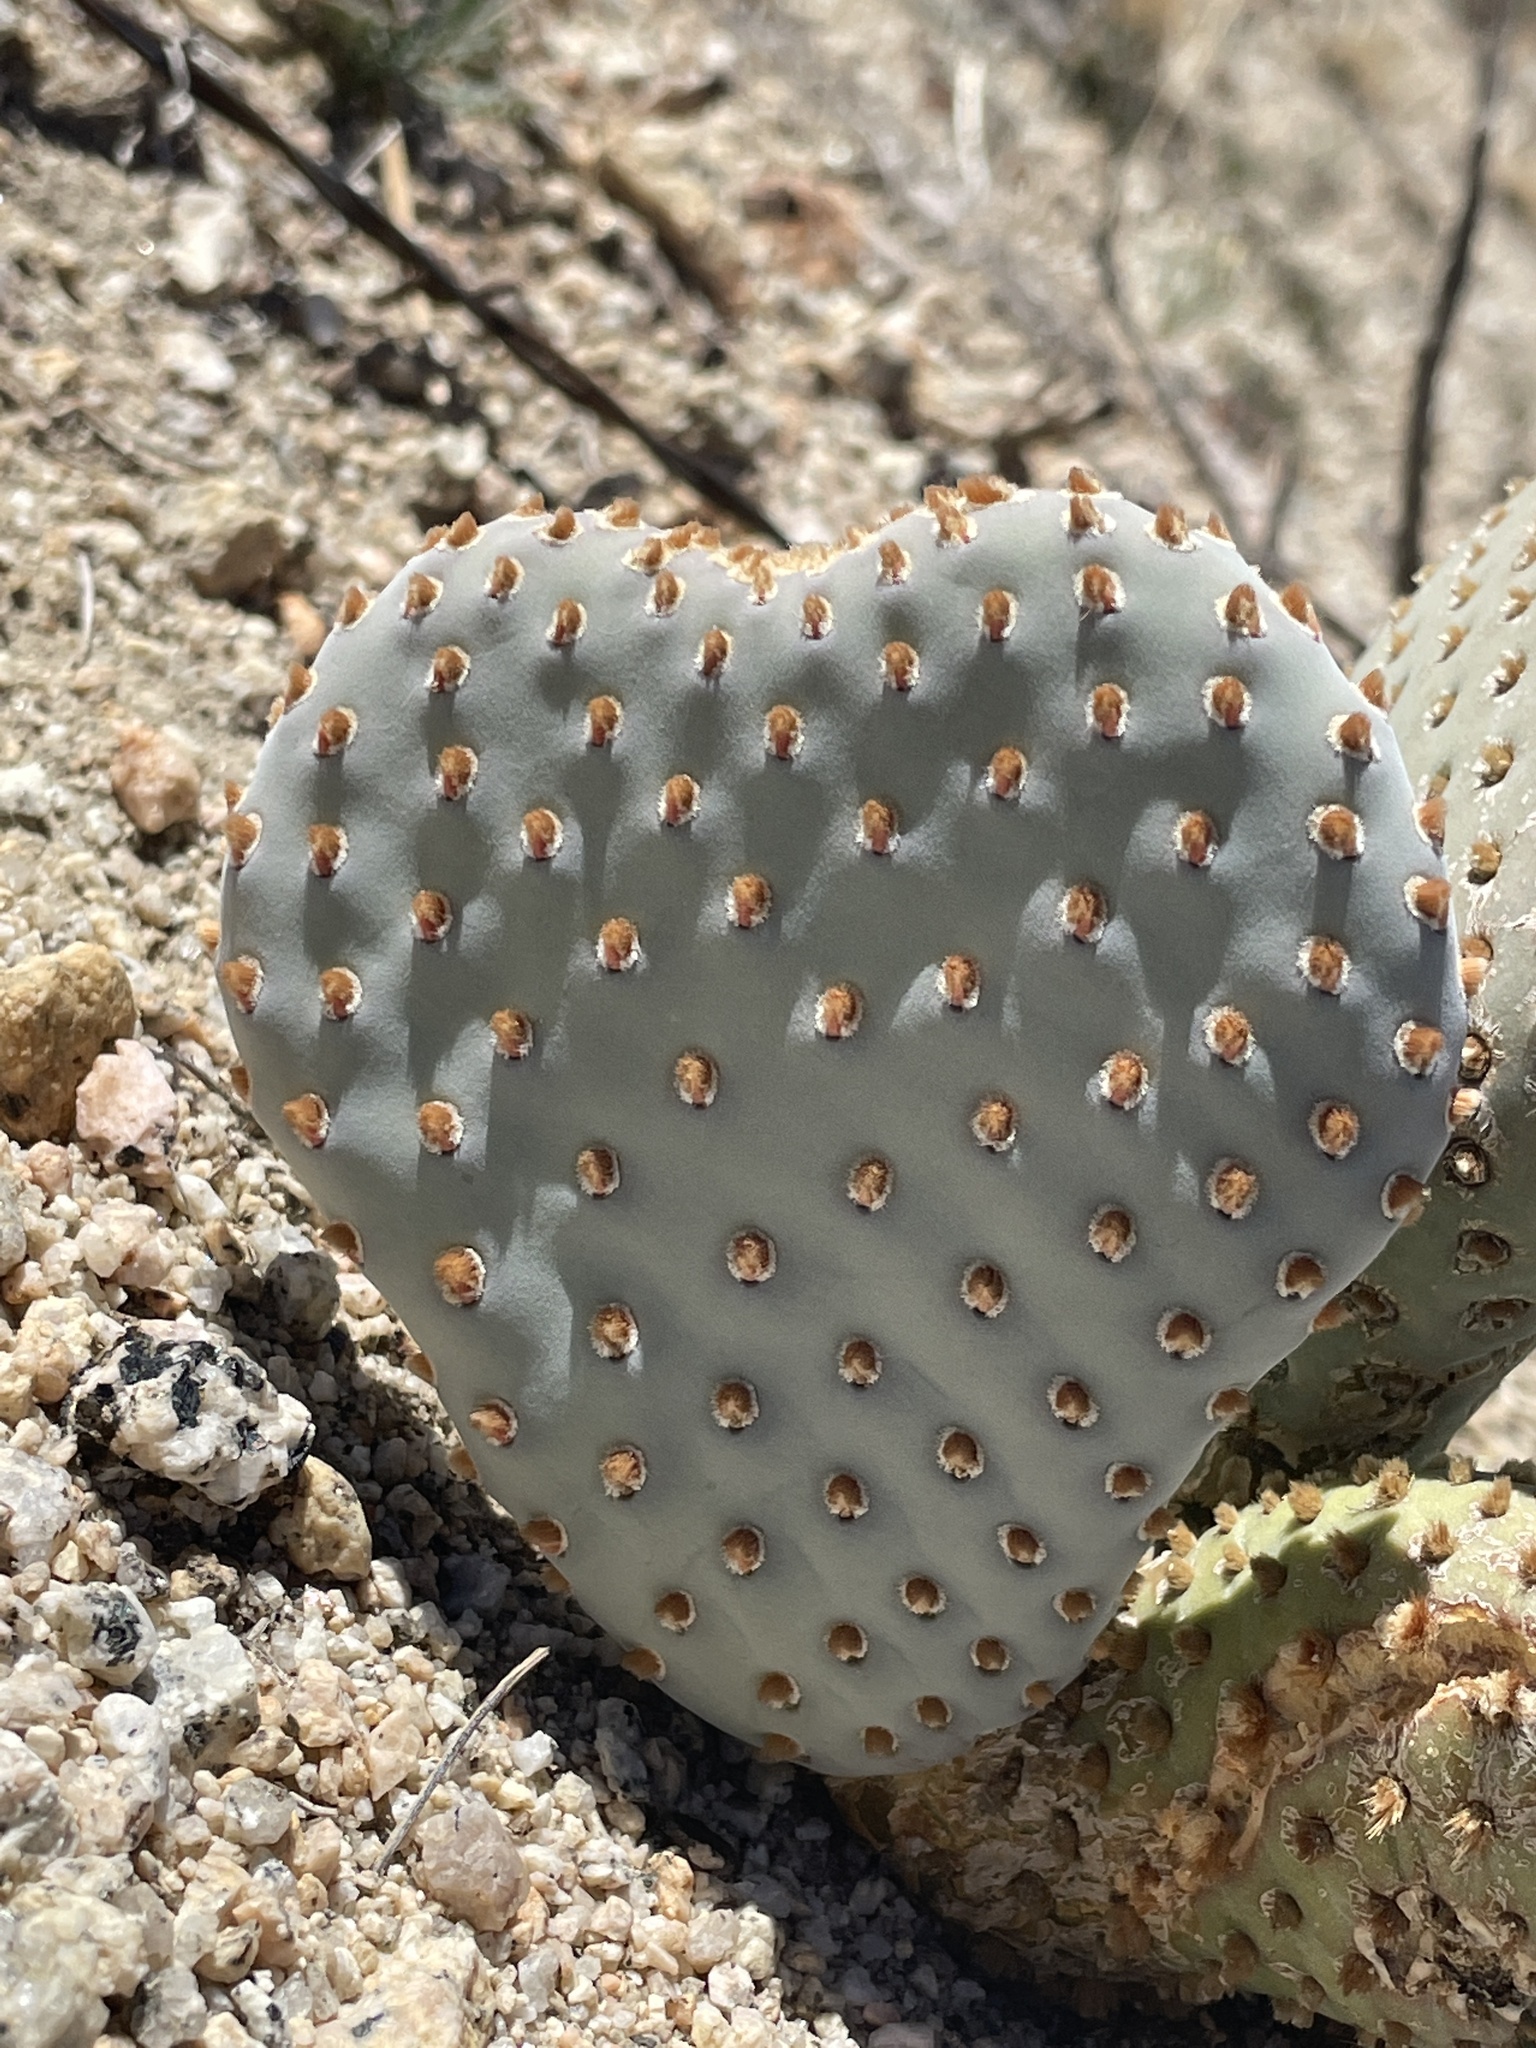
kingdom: Plantae
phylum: Tracheophyta
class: Magnoliopsida
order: Caryophyllales
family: Cactaceae
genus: Opuntia
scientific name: Opuntia basilaris
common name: Beavertail prickly-pear
